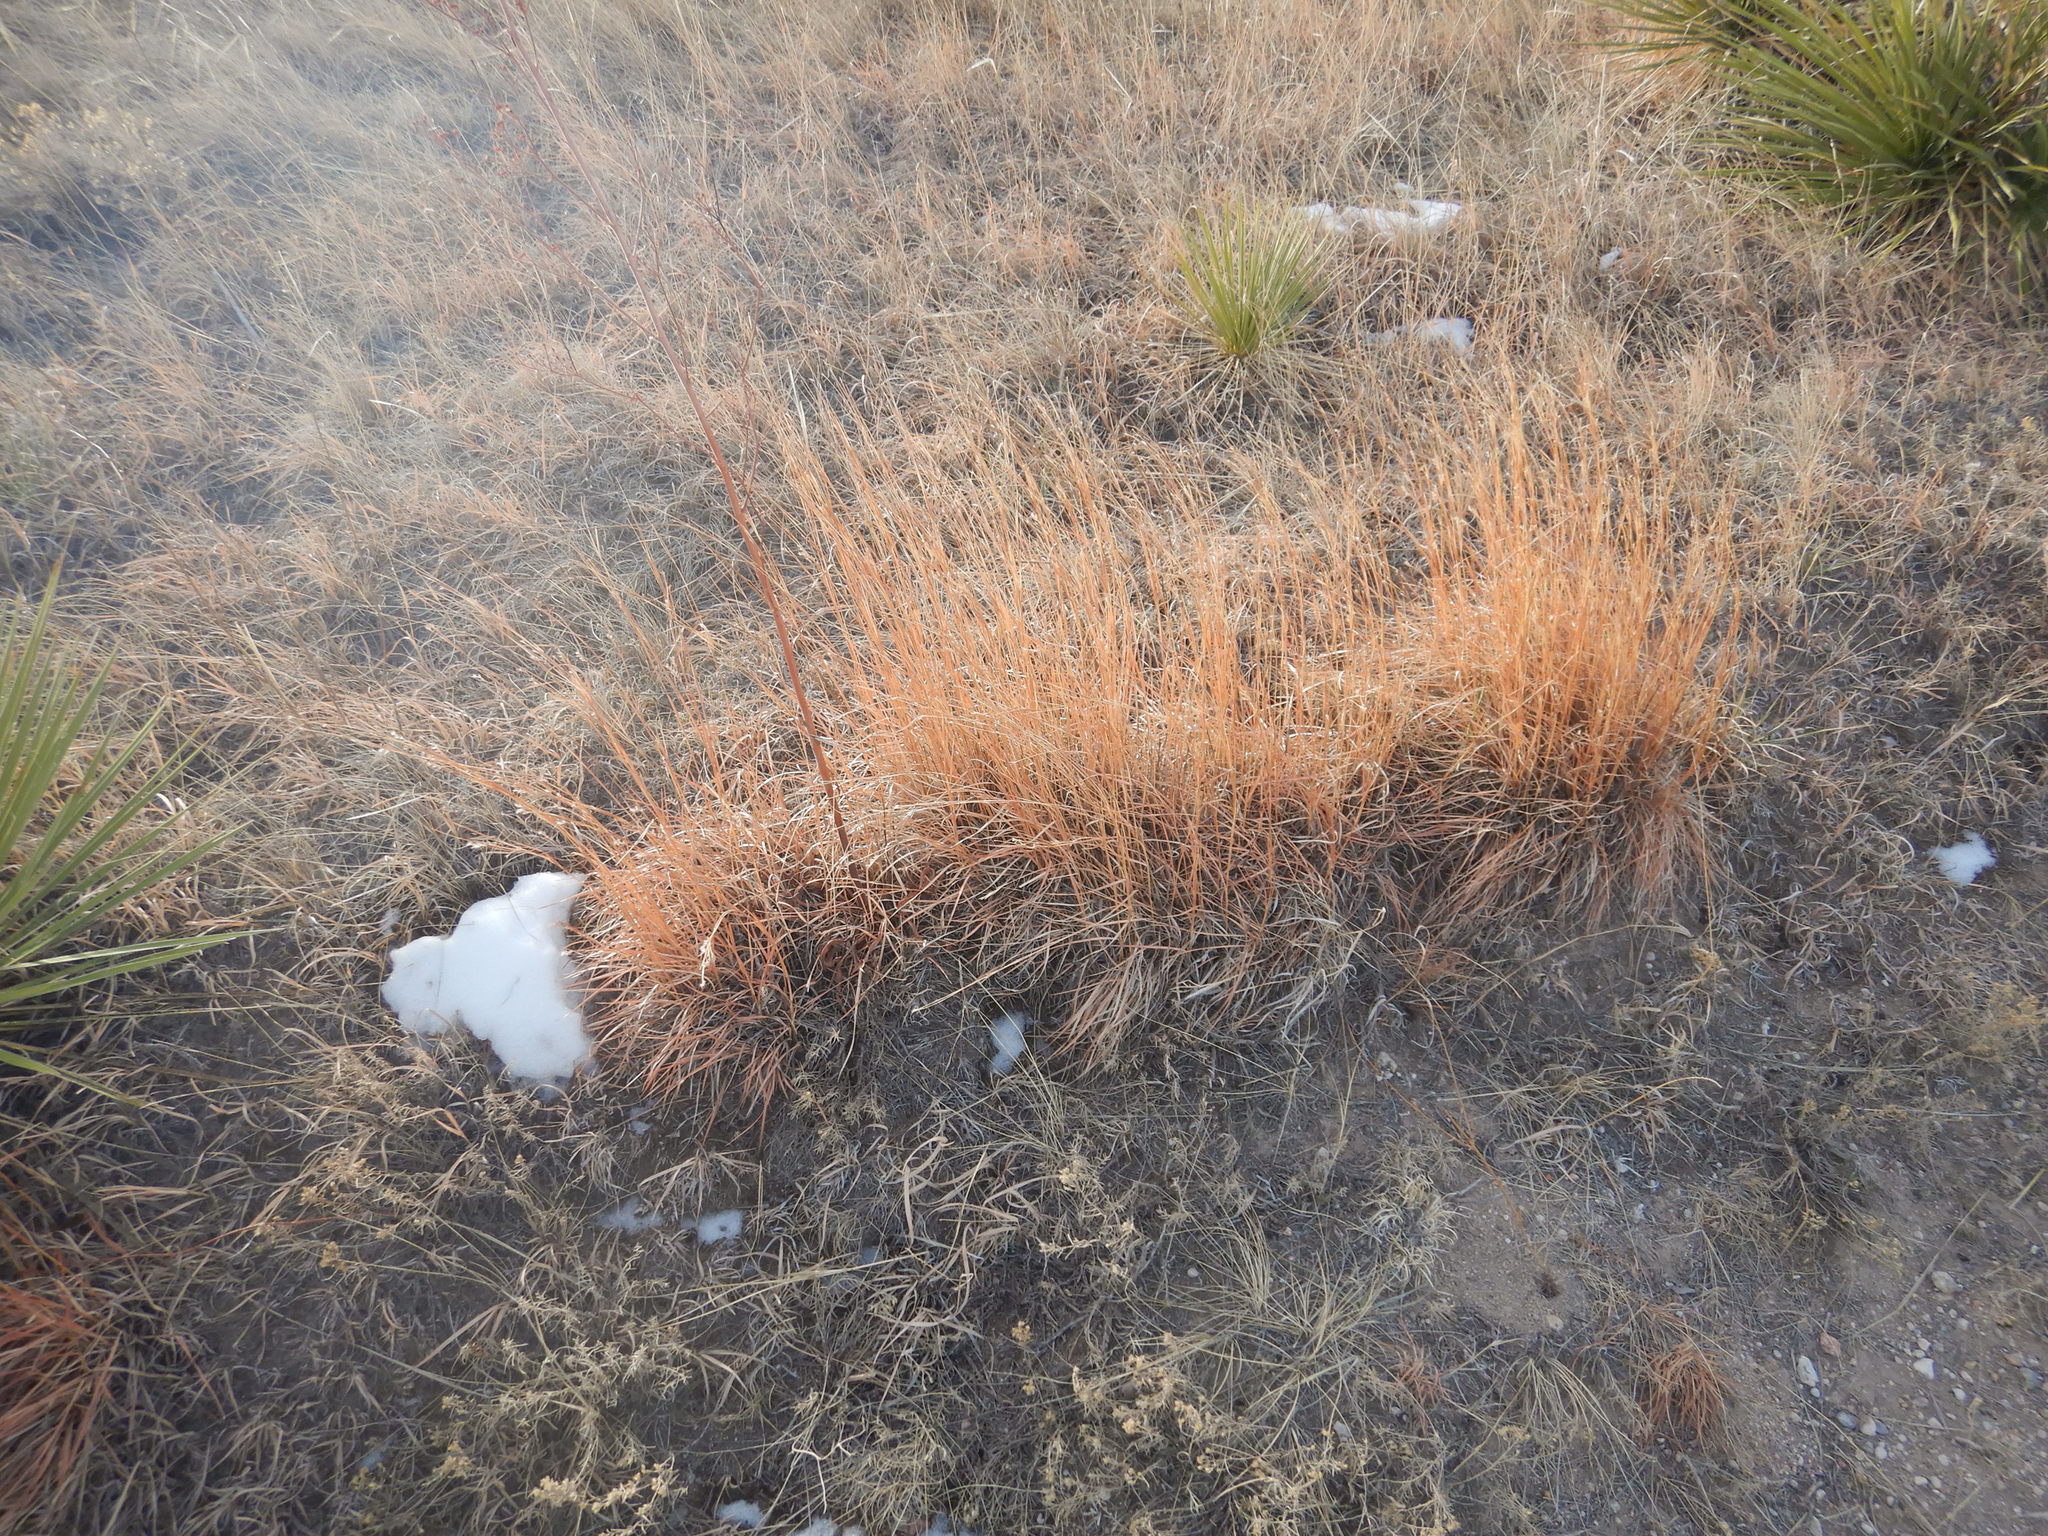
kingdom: Plantae
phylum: Tracheophyta
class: Liliopsida
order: Poales
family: Poaceae
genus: Schizachyrium
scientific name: Schizachyrium scoparium
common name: Little bluestem
